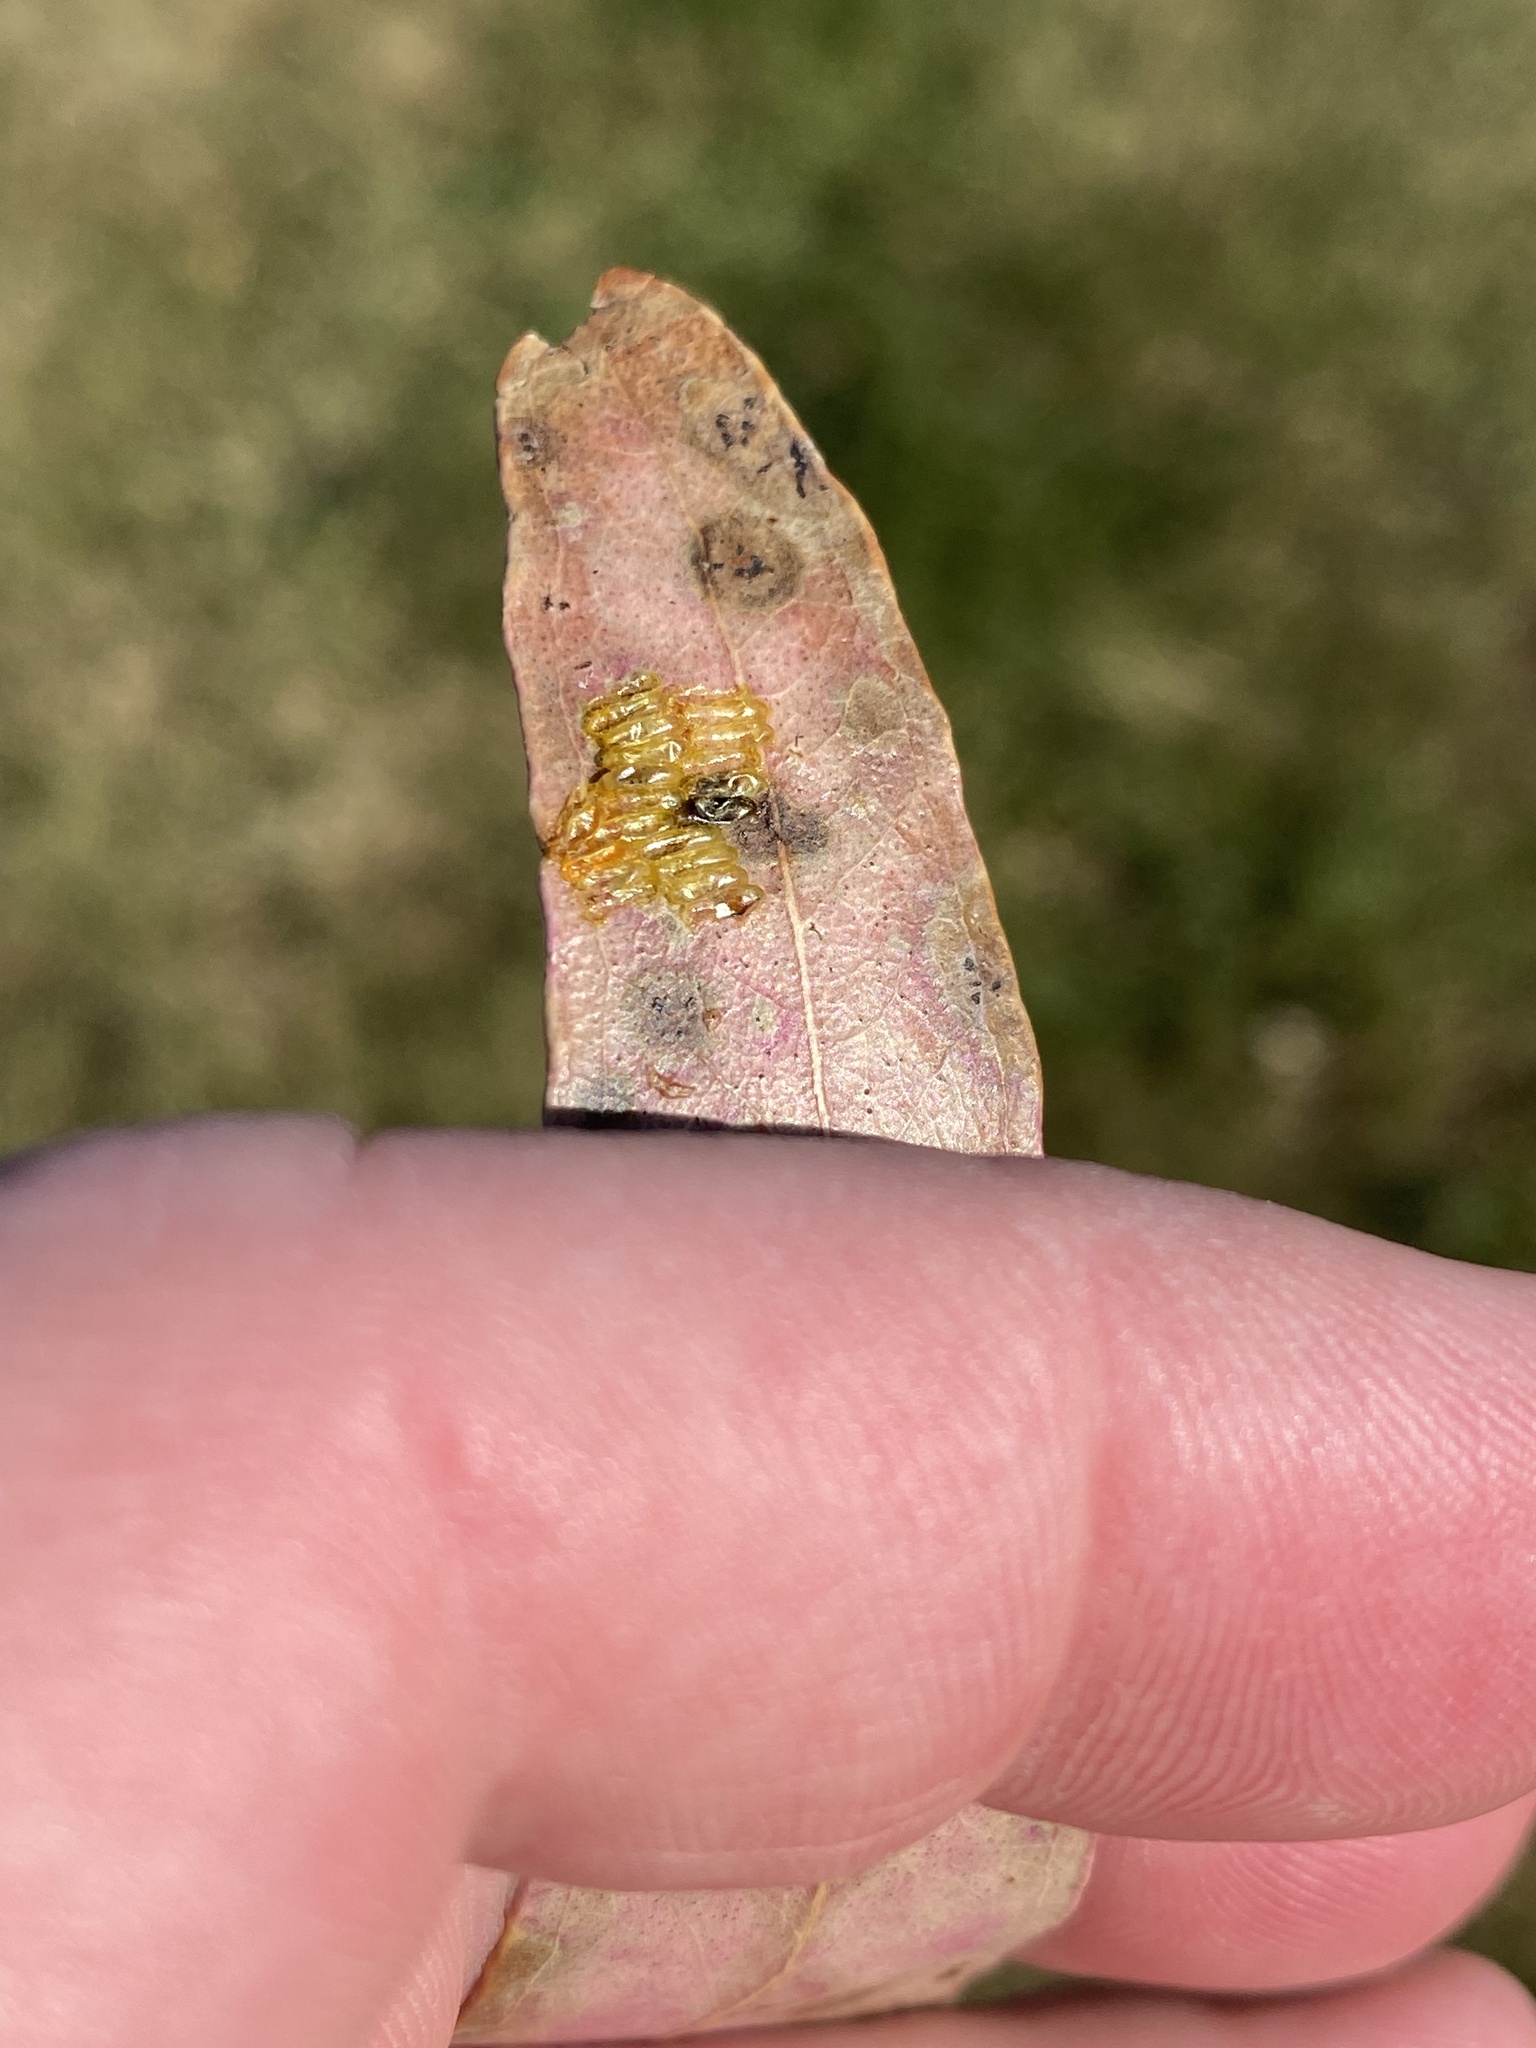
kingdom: Animalia
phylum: Arthropoda
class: Insecta
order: Coleoptera
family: Chrysomelidae
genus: Paropsis
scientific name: Paropsis charybdis
